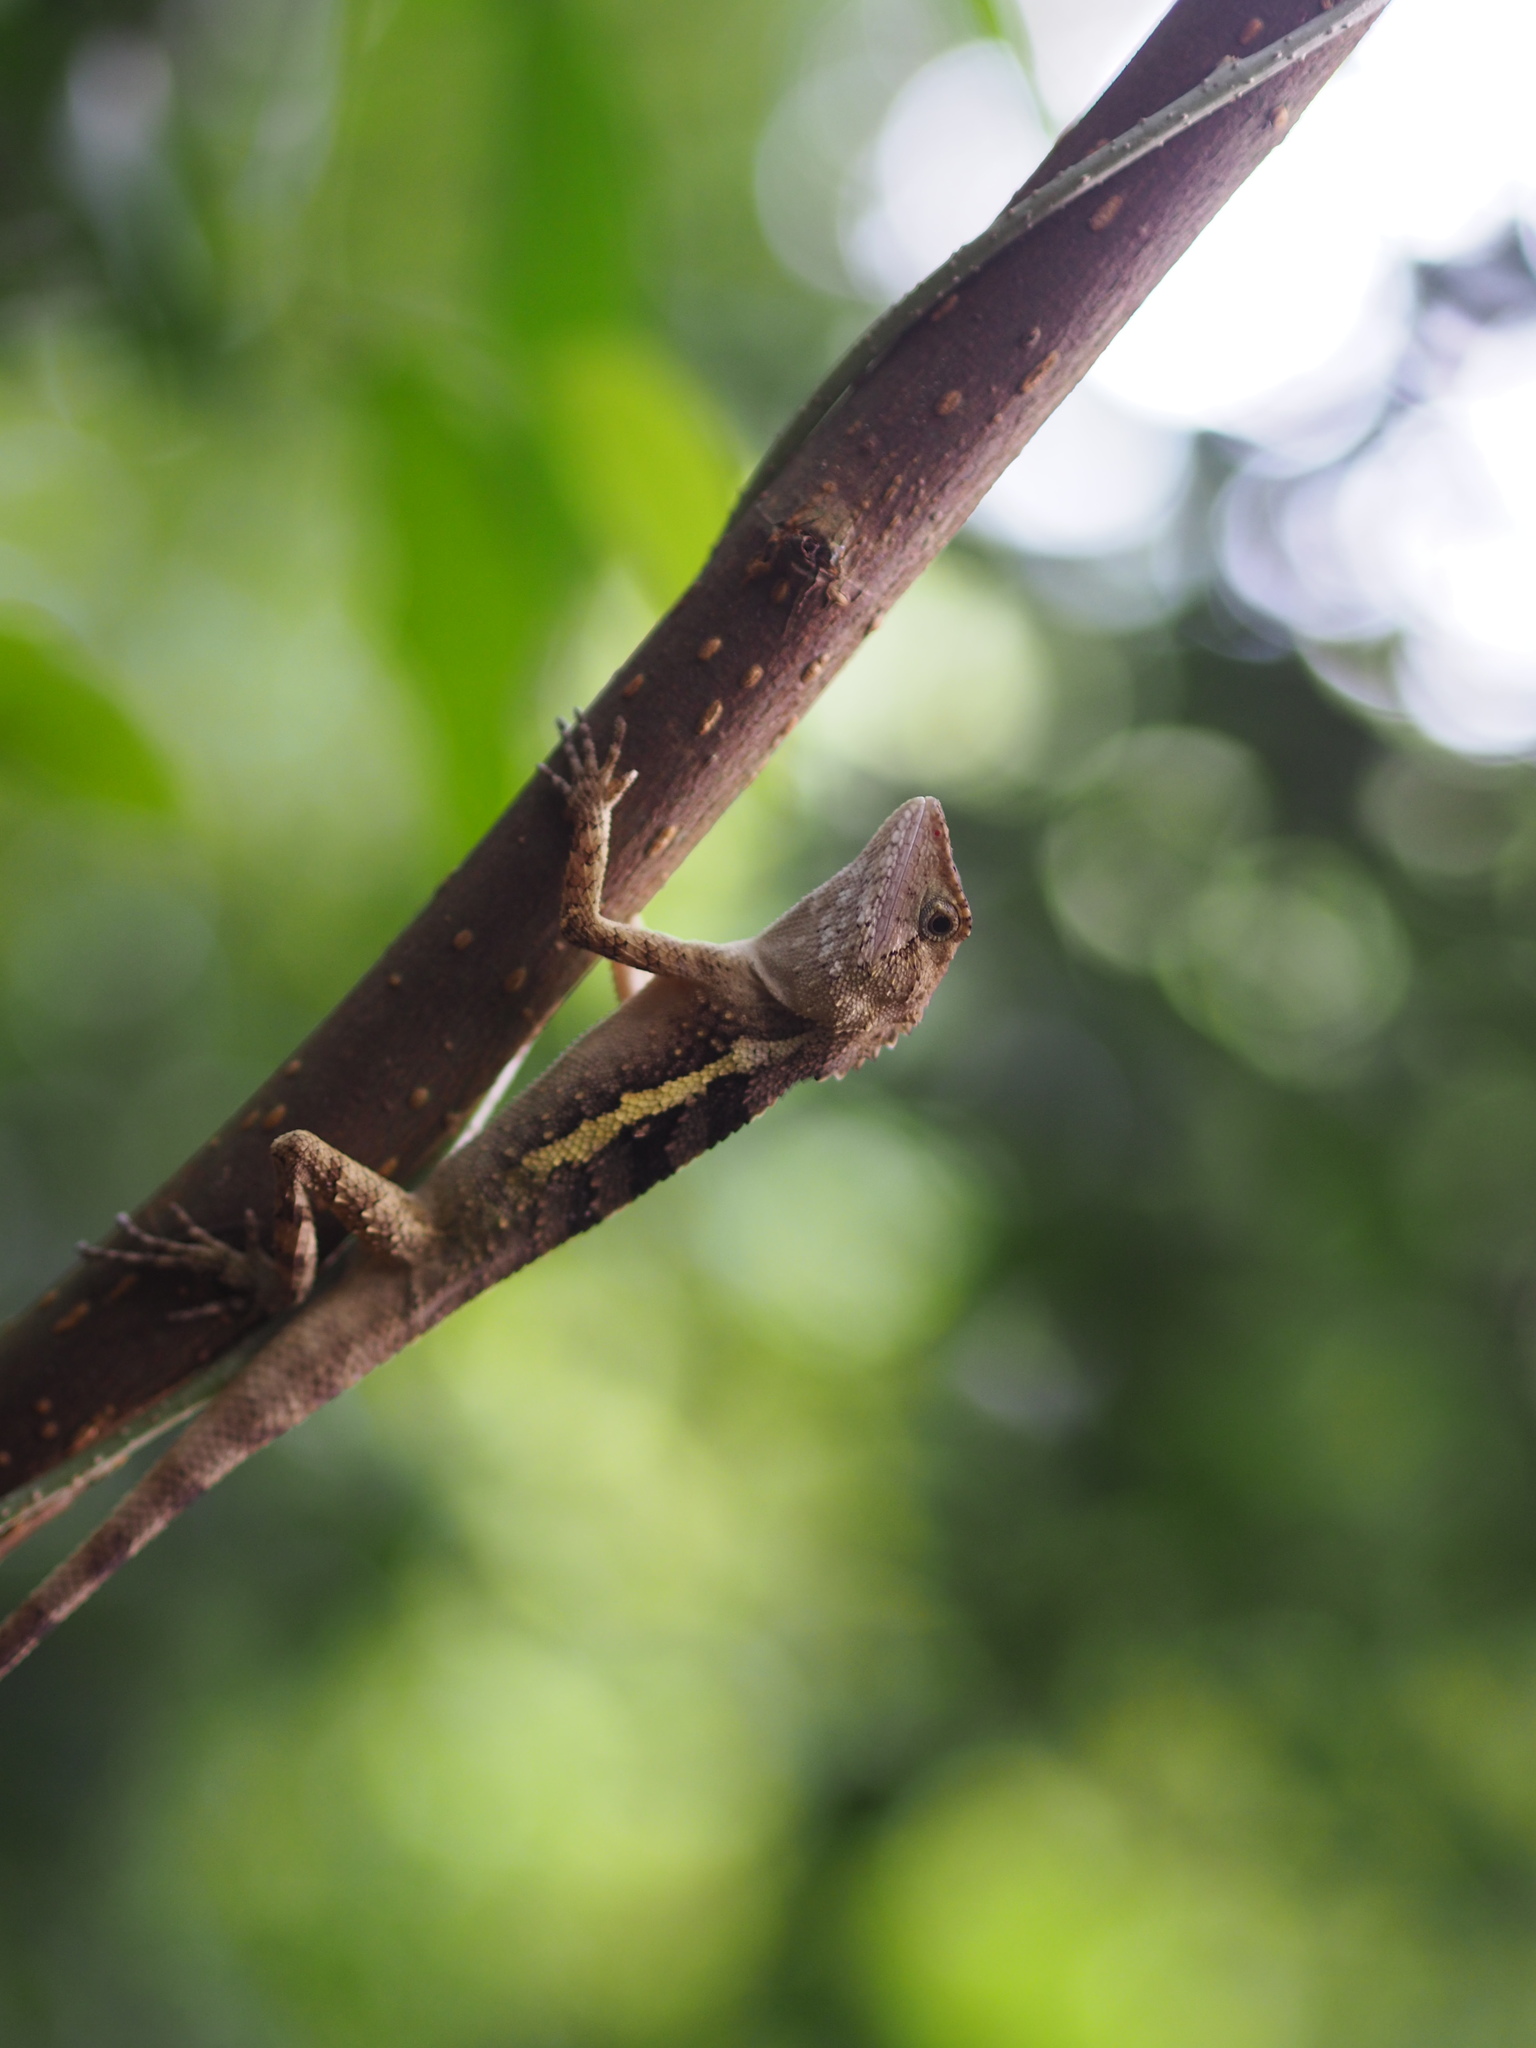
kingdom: Animalia
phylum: Chordata
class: Squamata
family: Agamidae
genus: Diploderma
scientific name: Diploderma swinhonis
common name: Taiwan japalure
